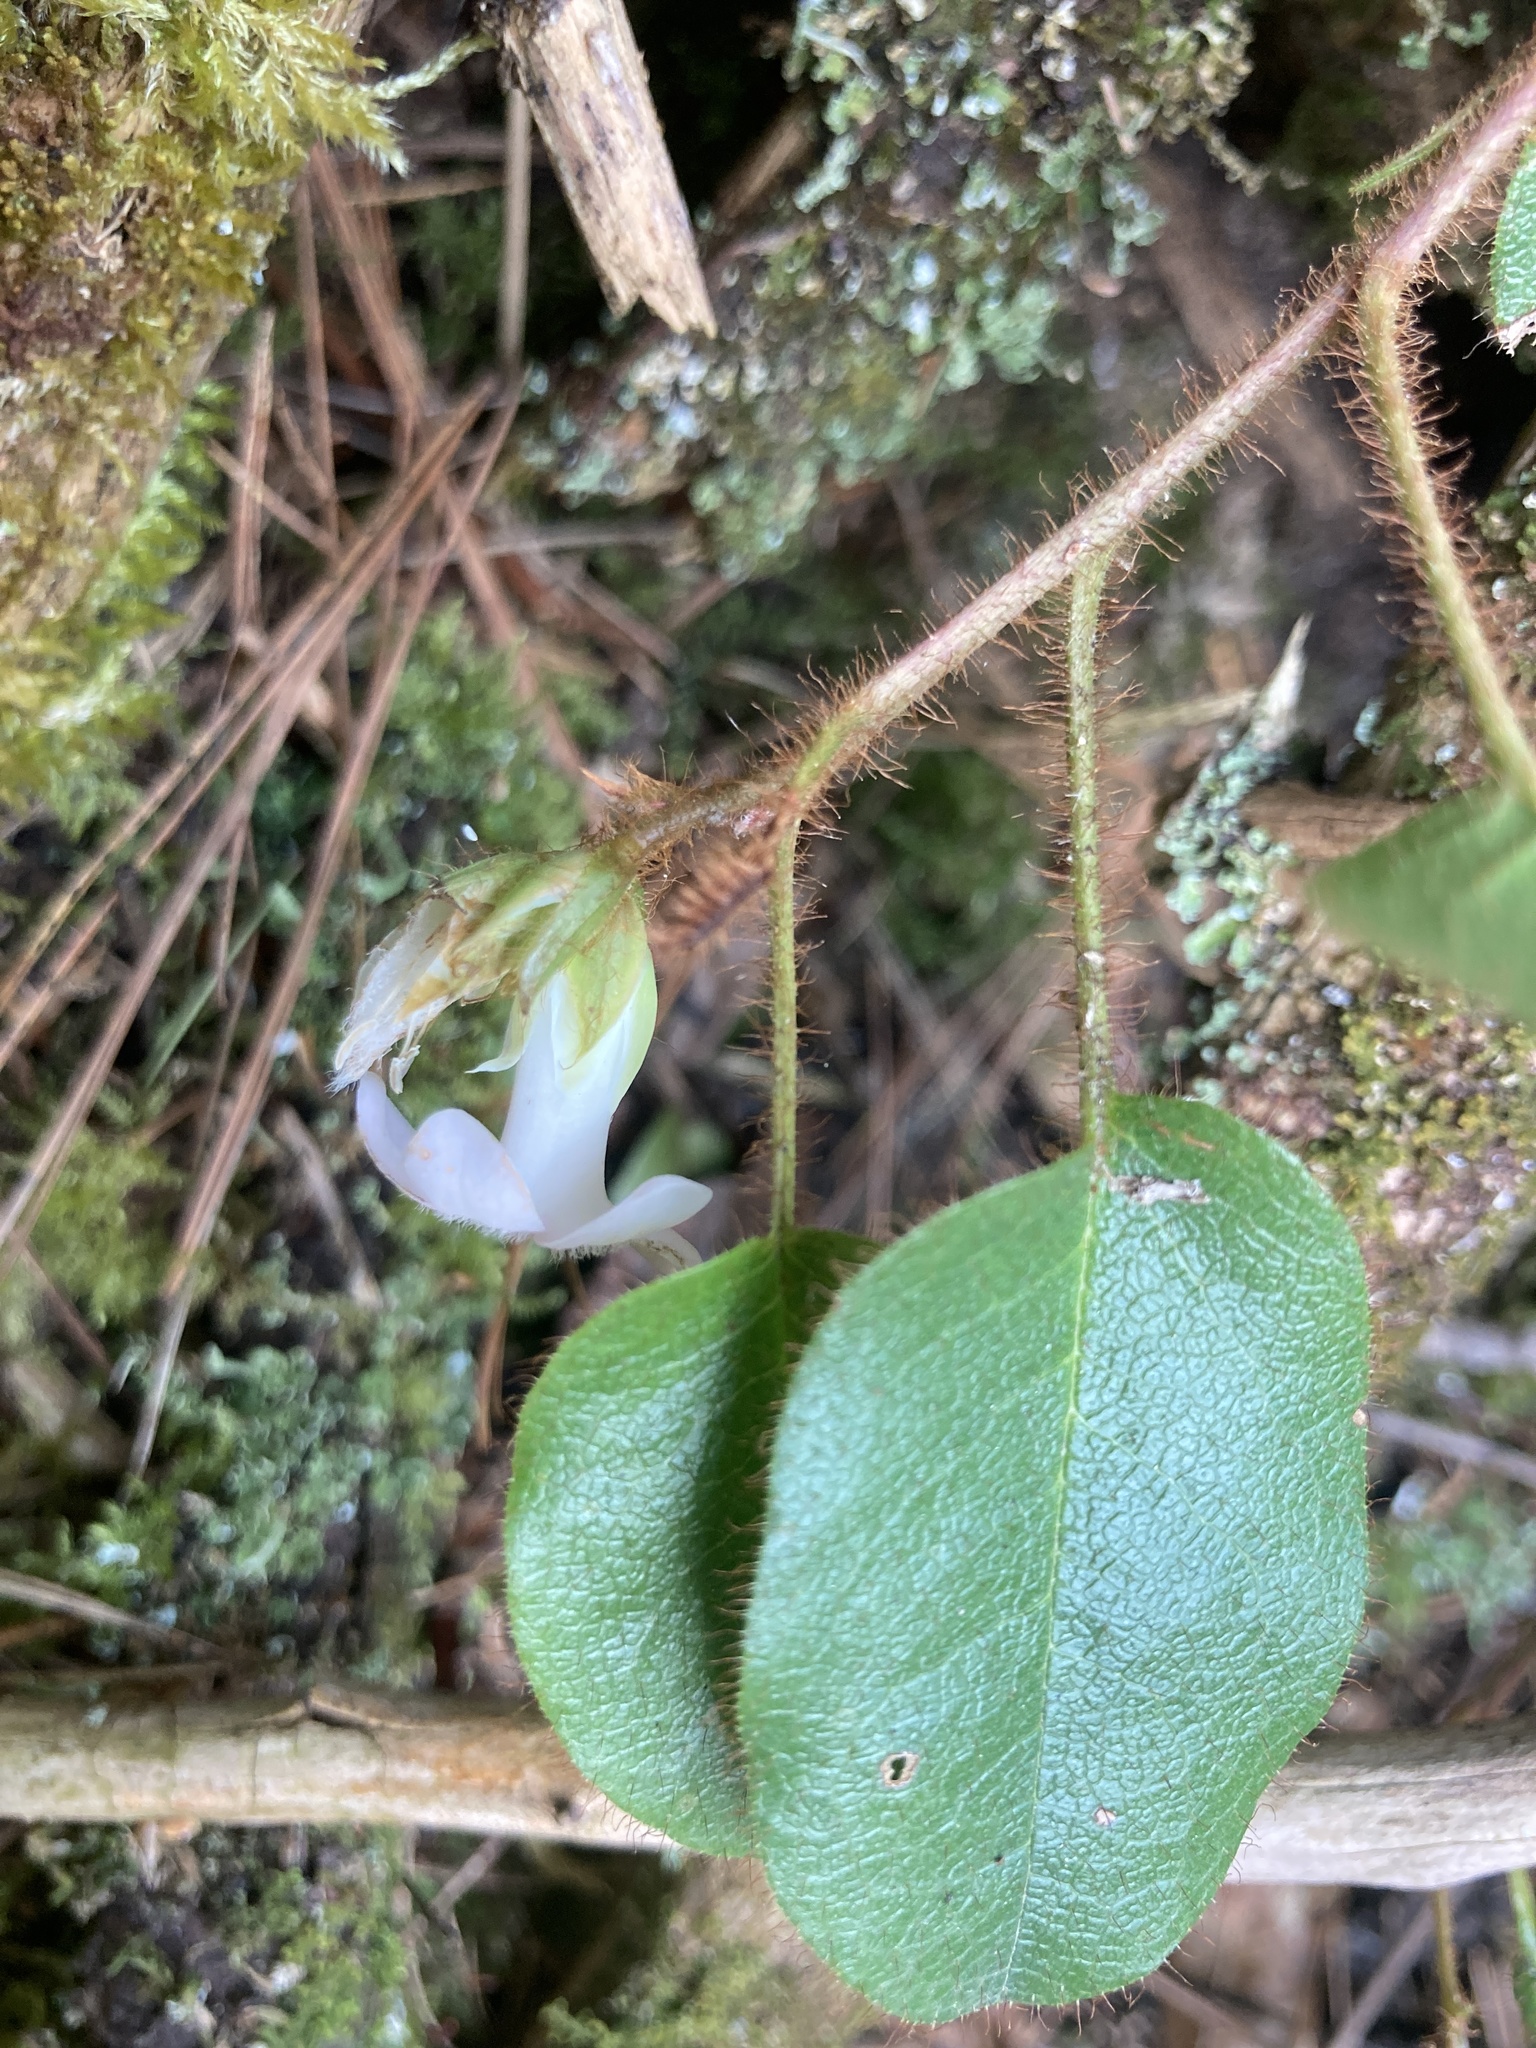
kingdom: Plantae
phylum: Tracheophyta
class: Magnoliopsida
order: Ericales
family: Ericaceae
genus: Epigaea
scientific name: Epigaea repens
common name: Gravelroot
